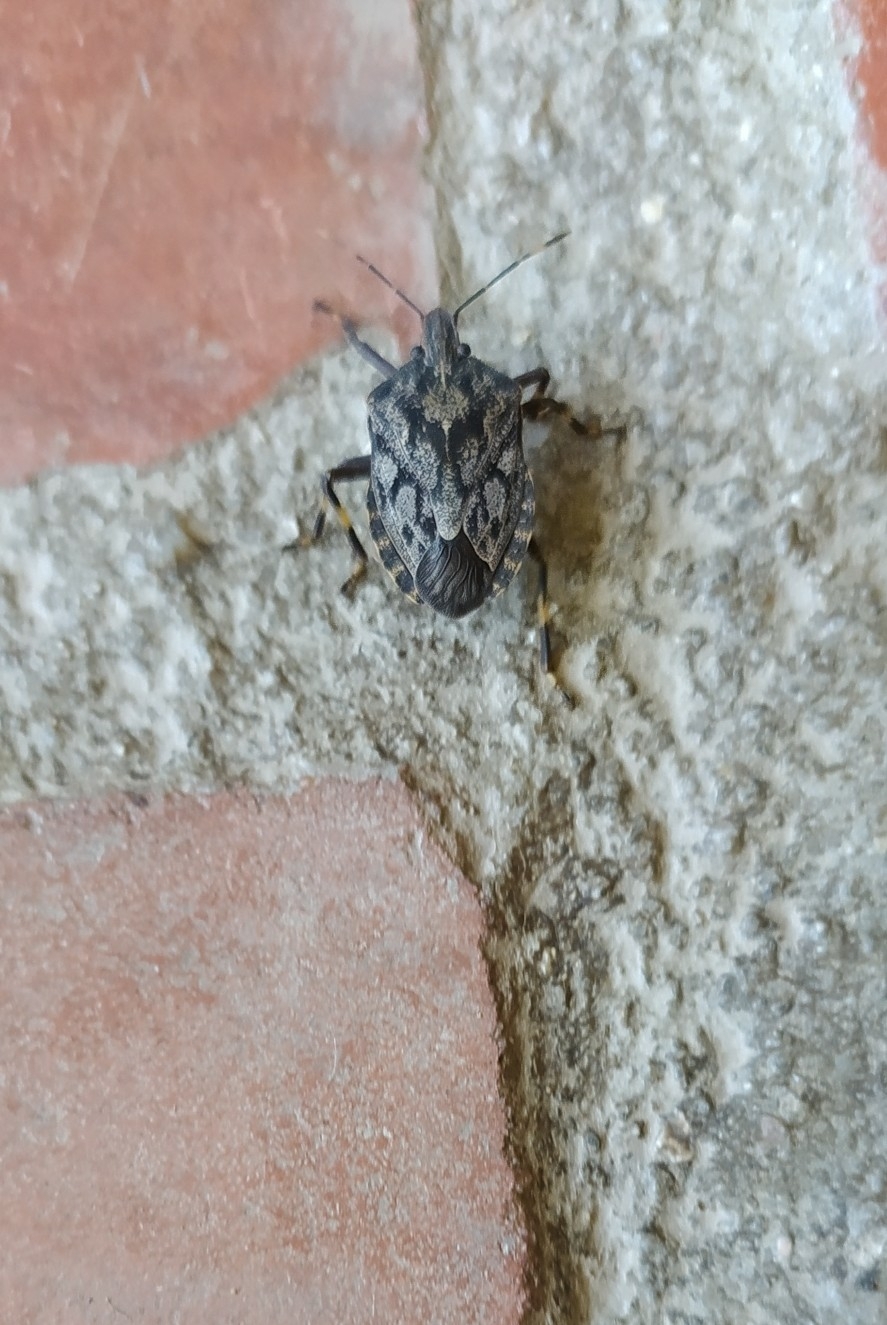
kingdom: Animalia
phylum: Arthropoda
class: Insecta
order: Hemiptera
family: Pentatomidae
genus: Coenomorpha
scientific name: Coenomorpha nervosa
